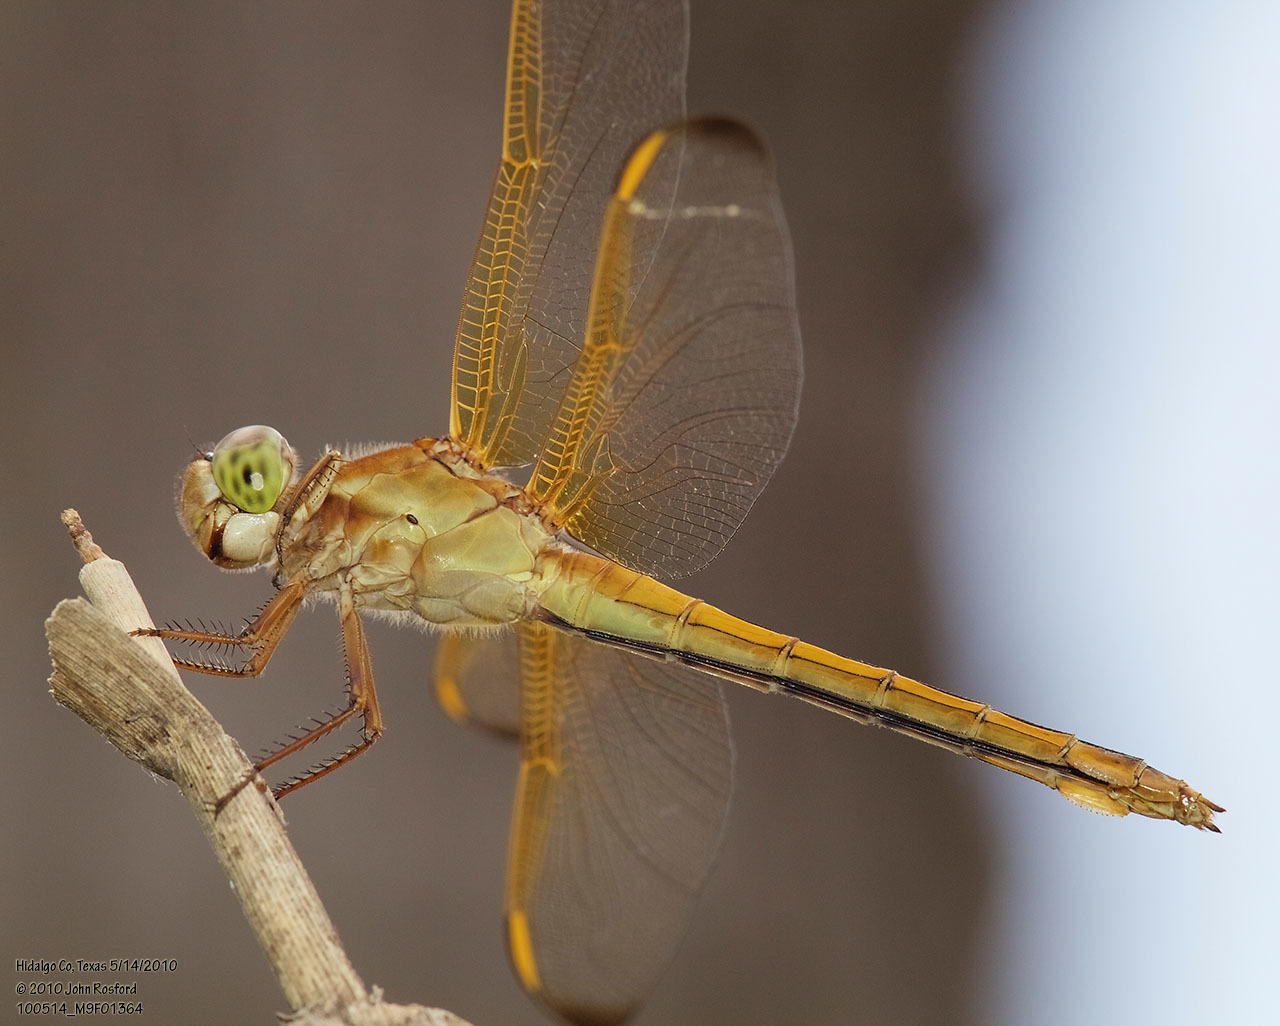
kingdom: Animalia
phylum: Arthropoda
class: Insecta
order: Odonata
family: Libellulidae
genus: Libellula
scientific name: Libellula needhami
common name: Needham's skimmer
